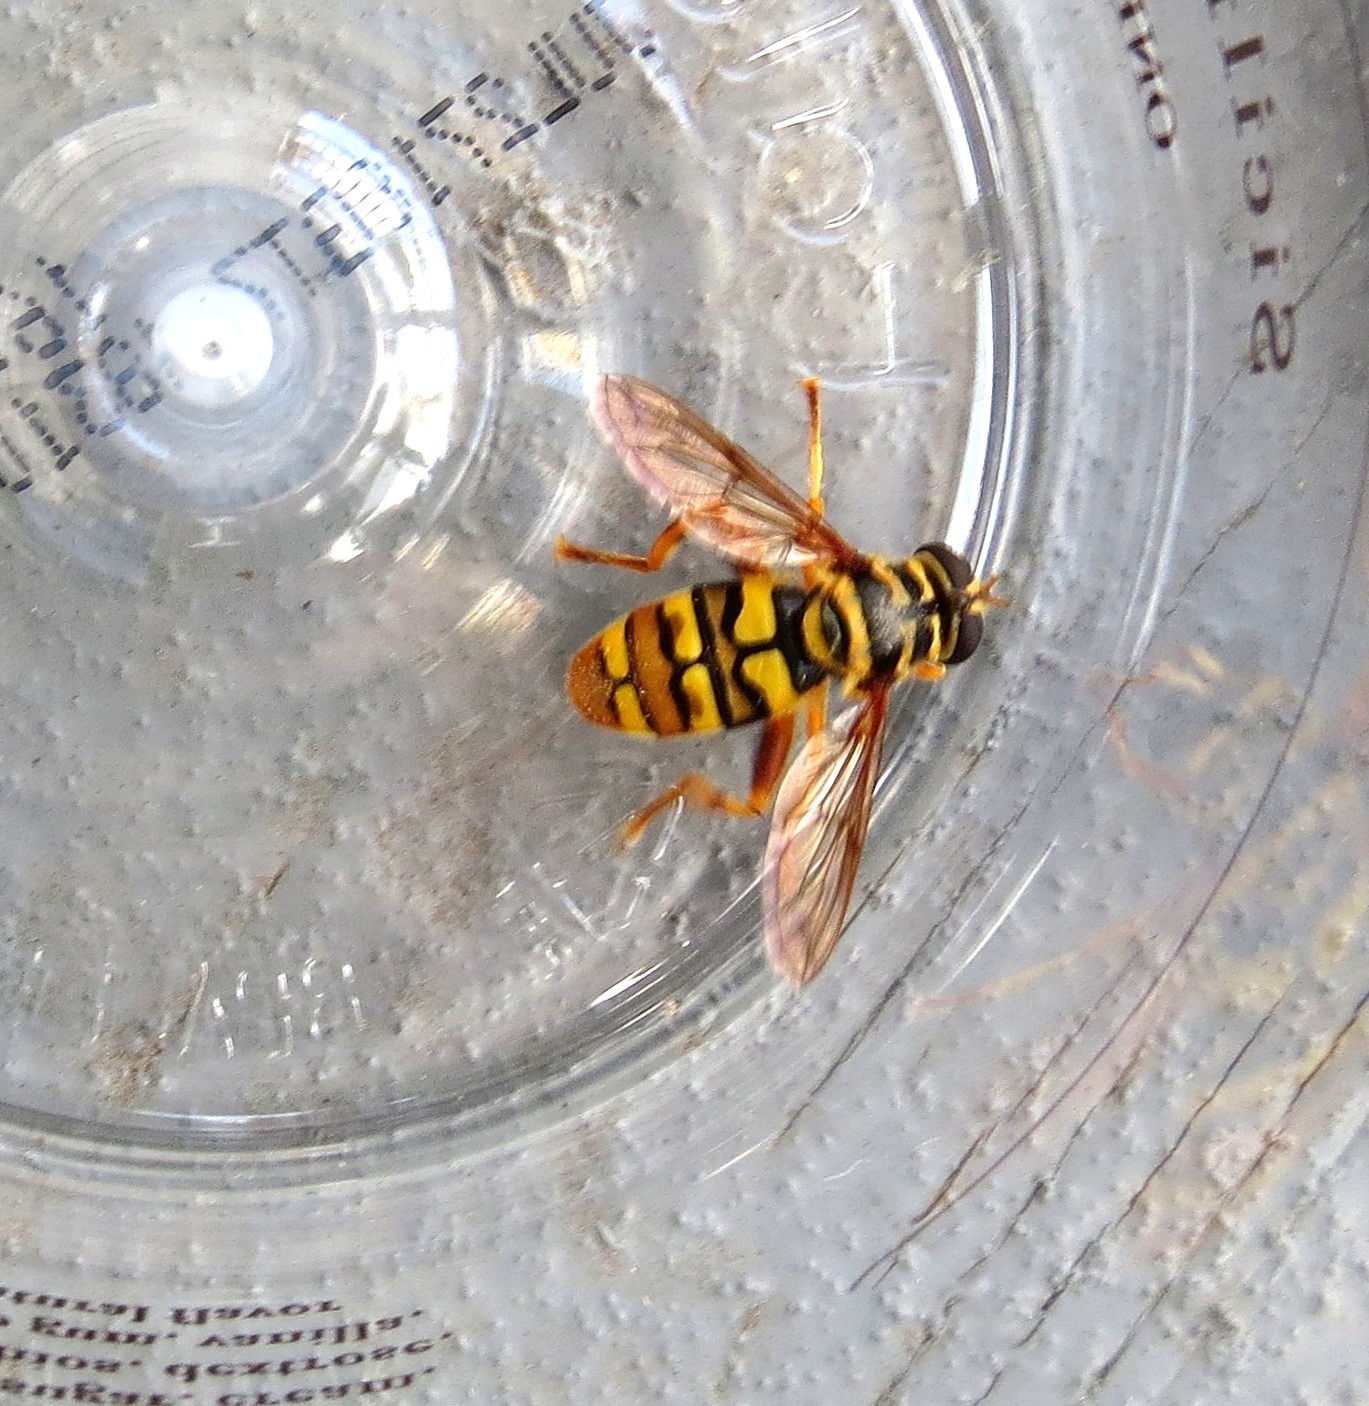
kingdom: Animalia
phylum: Arthropoda
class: Insecta
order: Diptera
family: Syrphidae
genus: Milesia
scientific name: Milesia virginiensis
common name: Virginia giant
